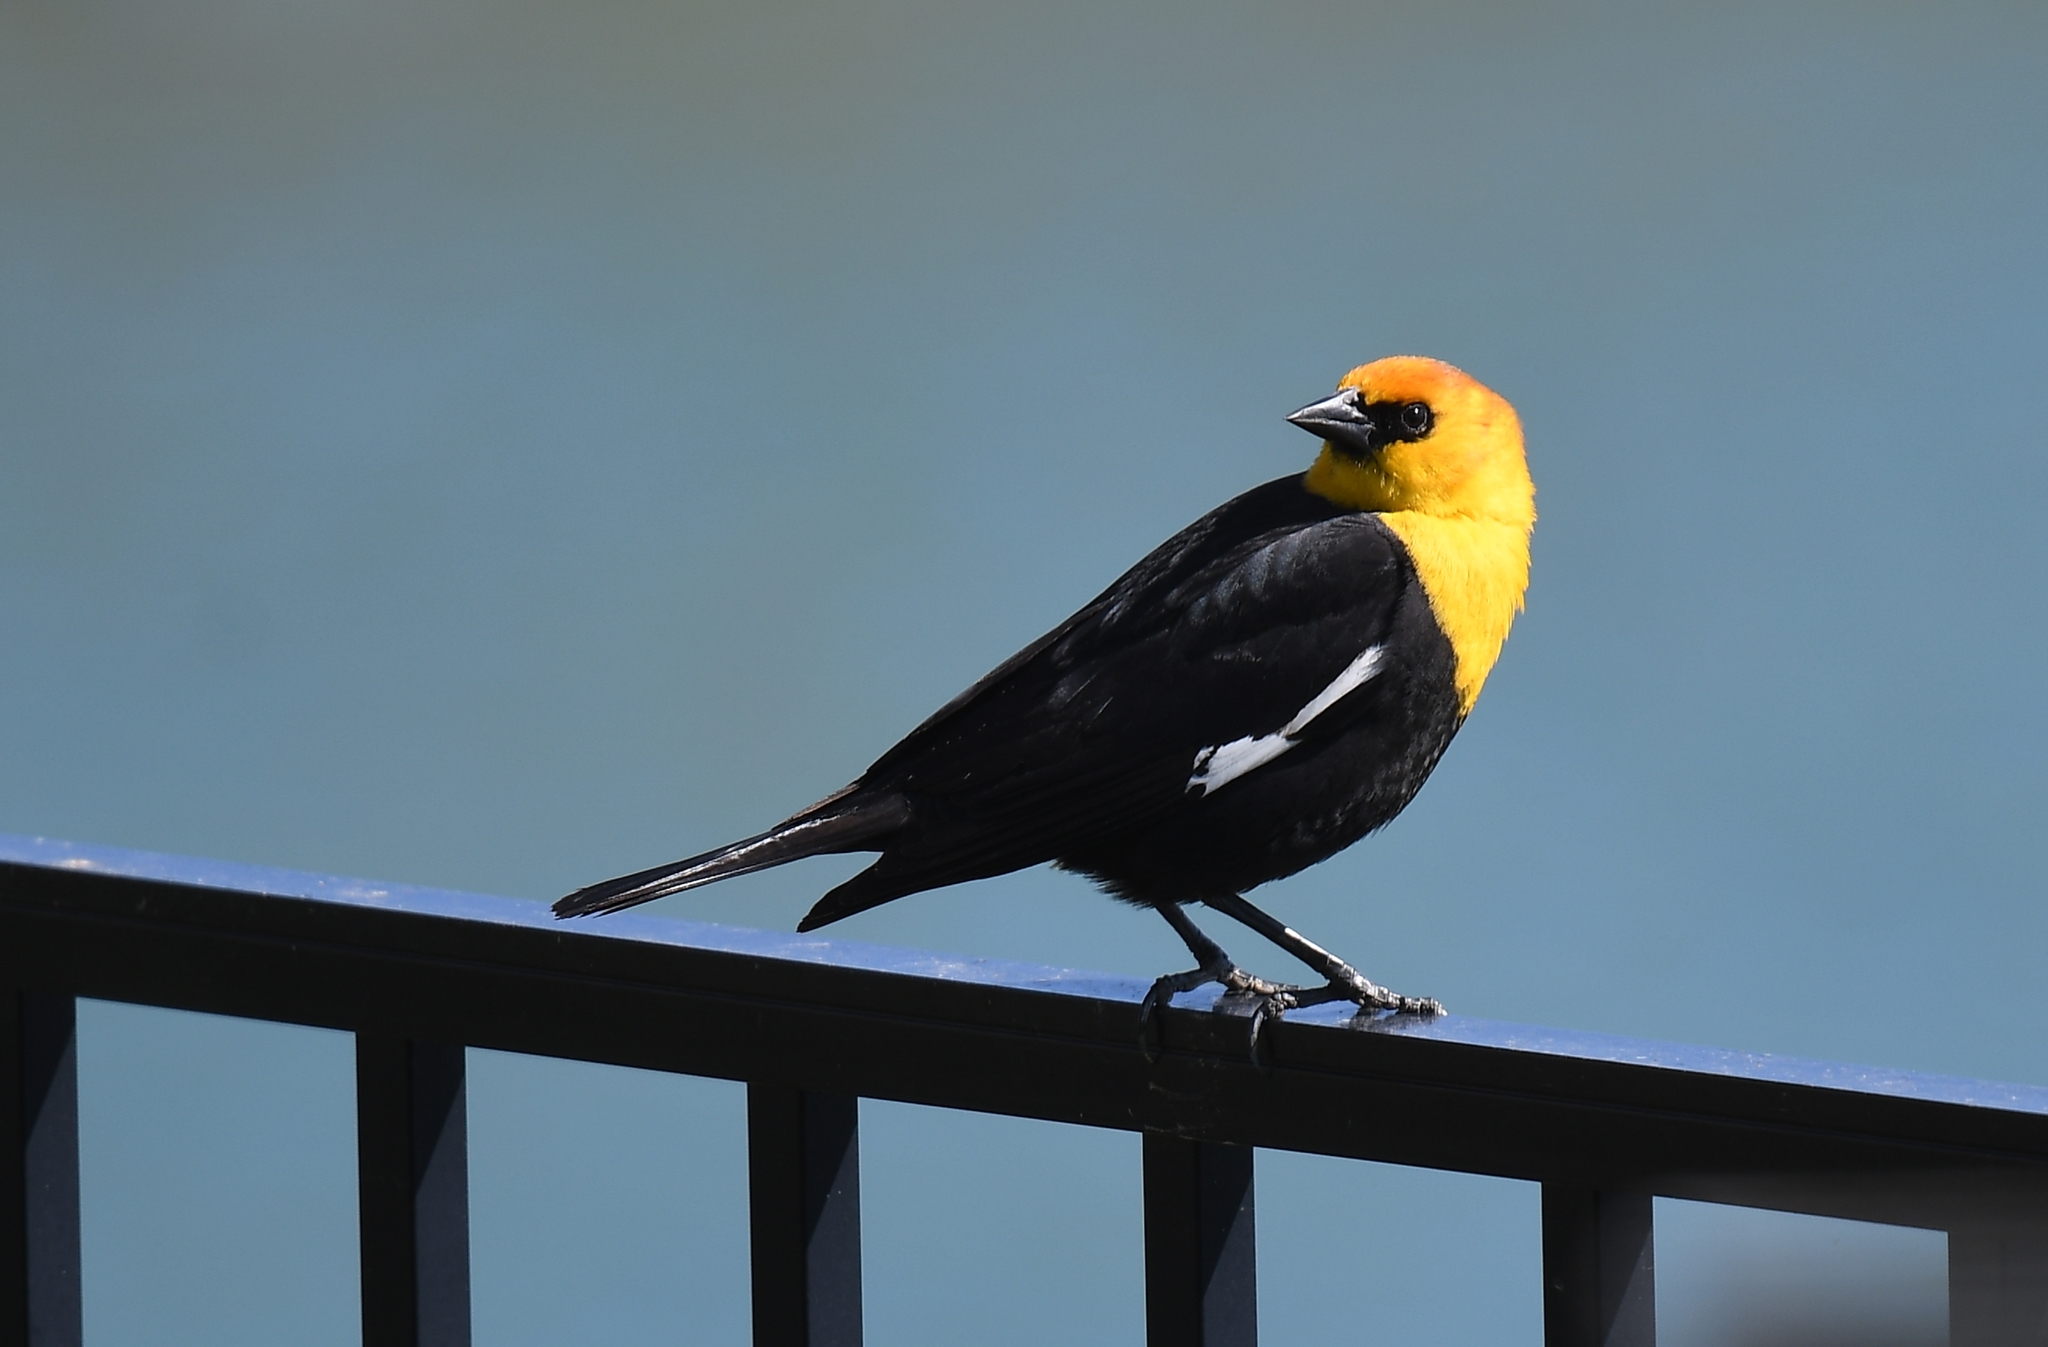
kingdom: Animalia
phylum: Chordata
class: Aves
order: Passeriformes
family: Icteridae
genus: Xanthocephalus
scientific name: Xanthocephalus xanthocephalus
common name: Yellow-headed blackbird
